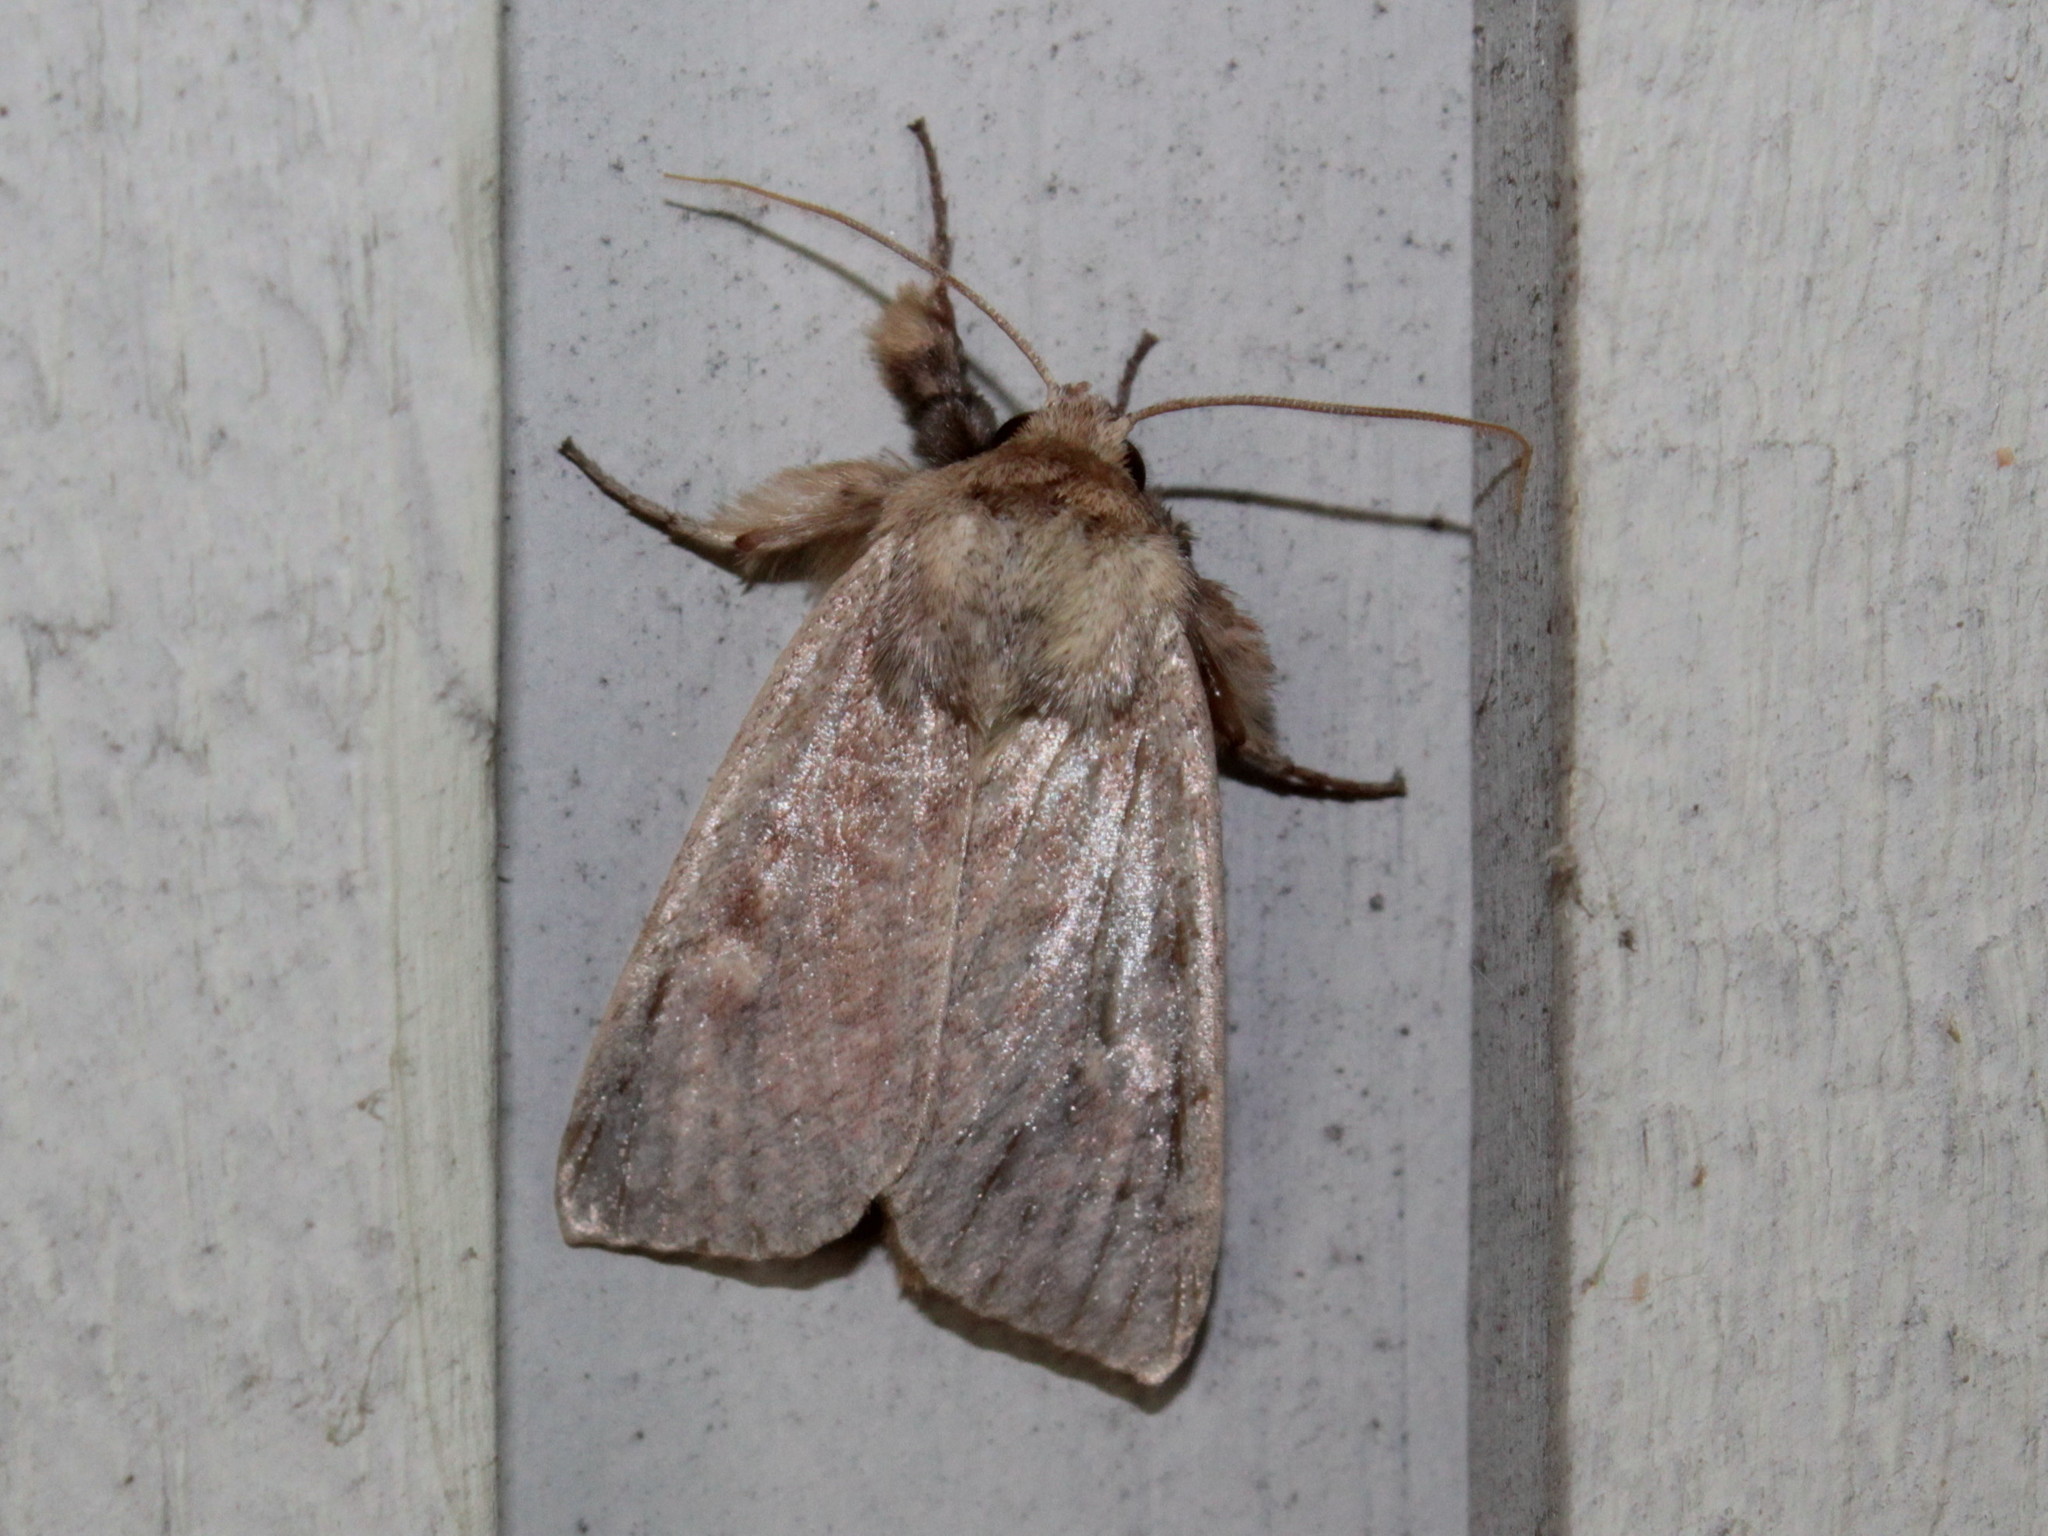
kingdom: Animalia
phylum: Arthropoda
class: Insecta
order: Lepidoptera
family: Noctuidae
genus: Leucania
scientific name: Leucania pseudargyria
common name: False wainscot
